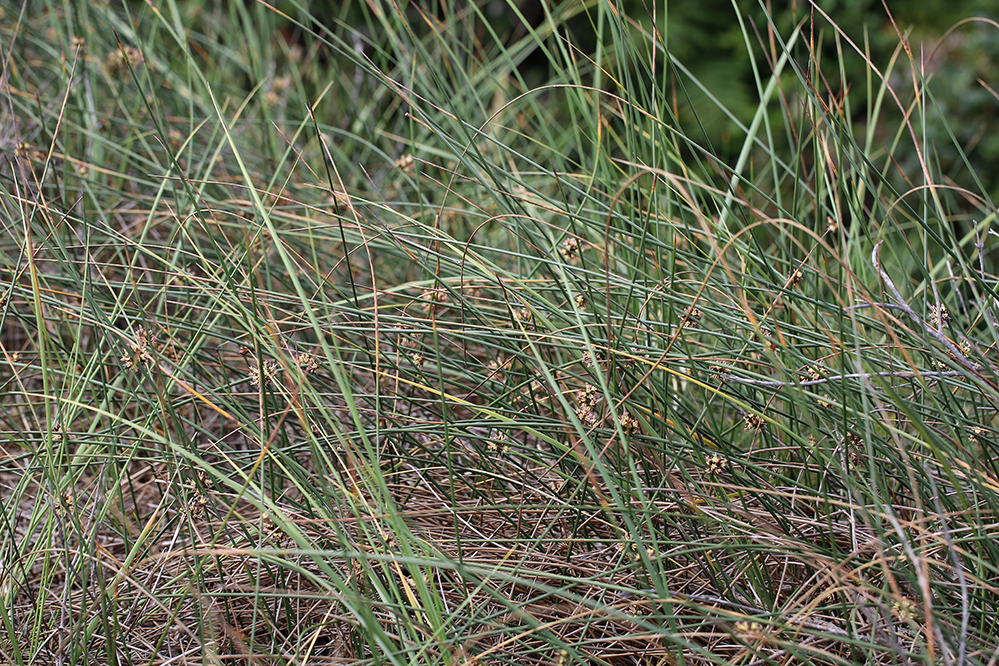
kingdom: Plantae
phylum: Tracheophyta
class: Liliopsida
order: Poales
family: Juncaceae
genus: Juncus
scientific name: Juncus breweri
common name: Brewer's rush
